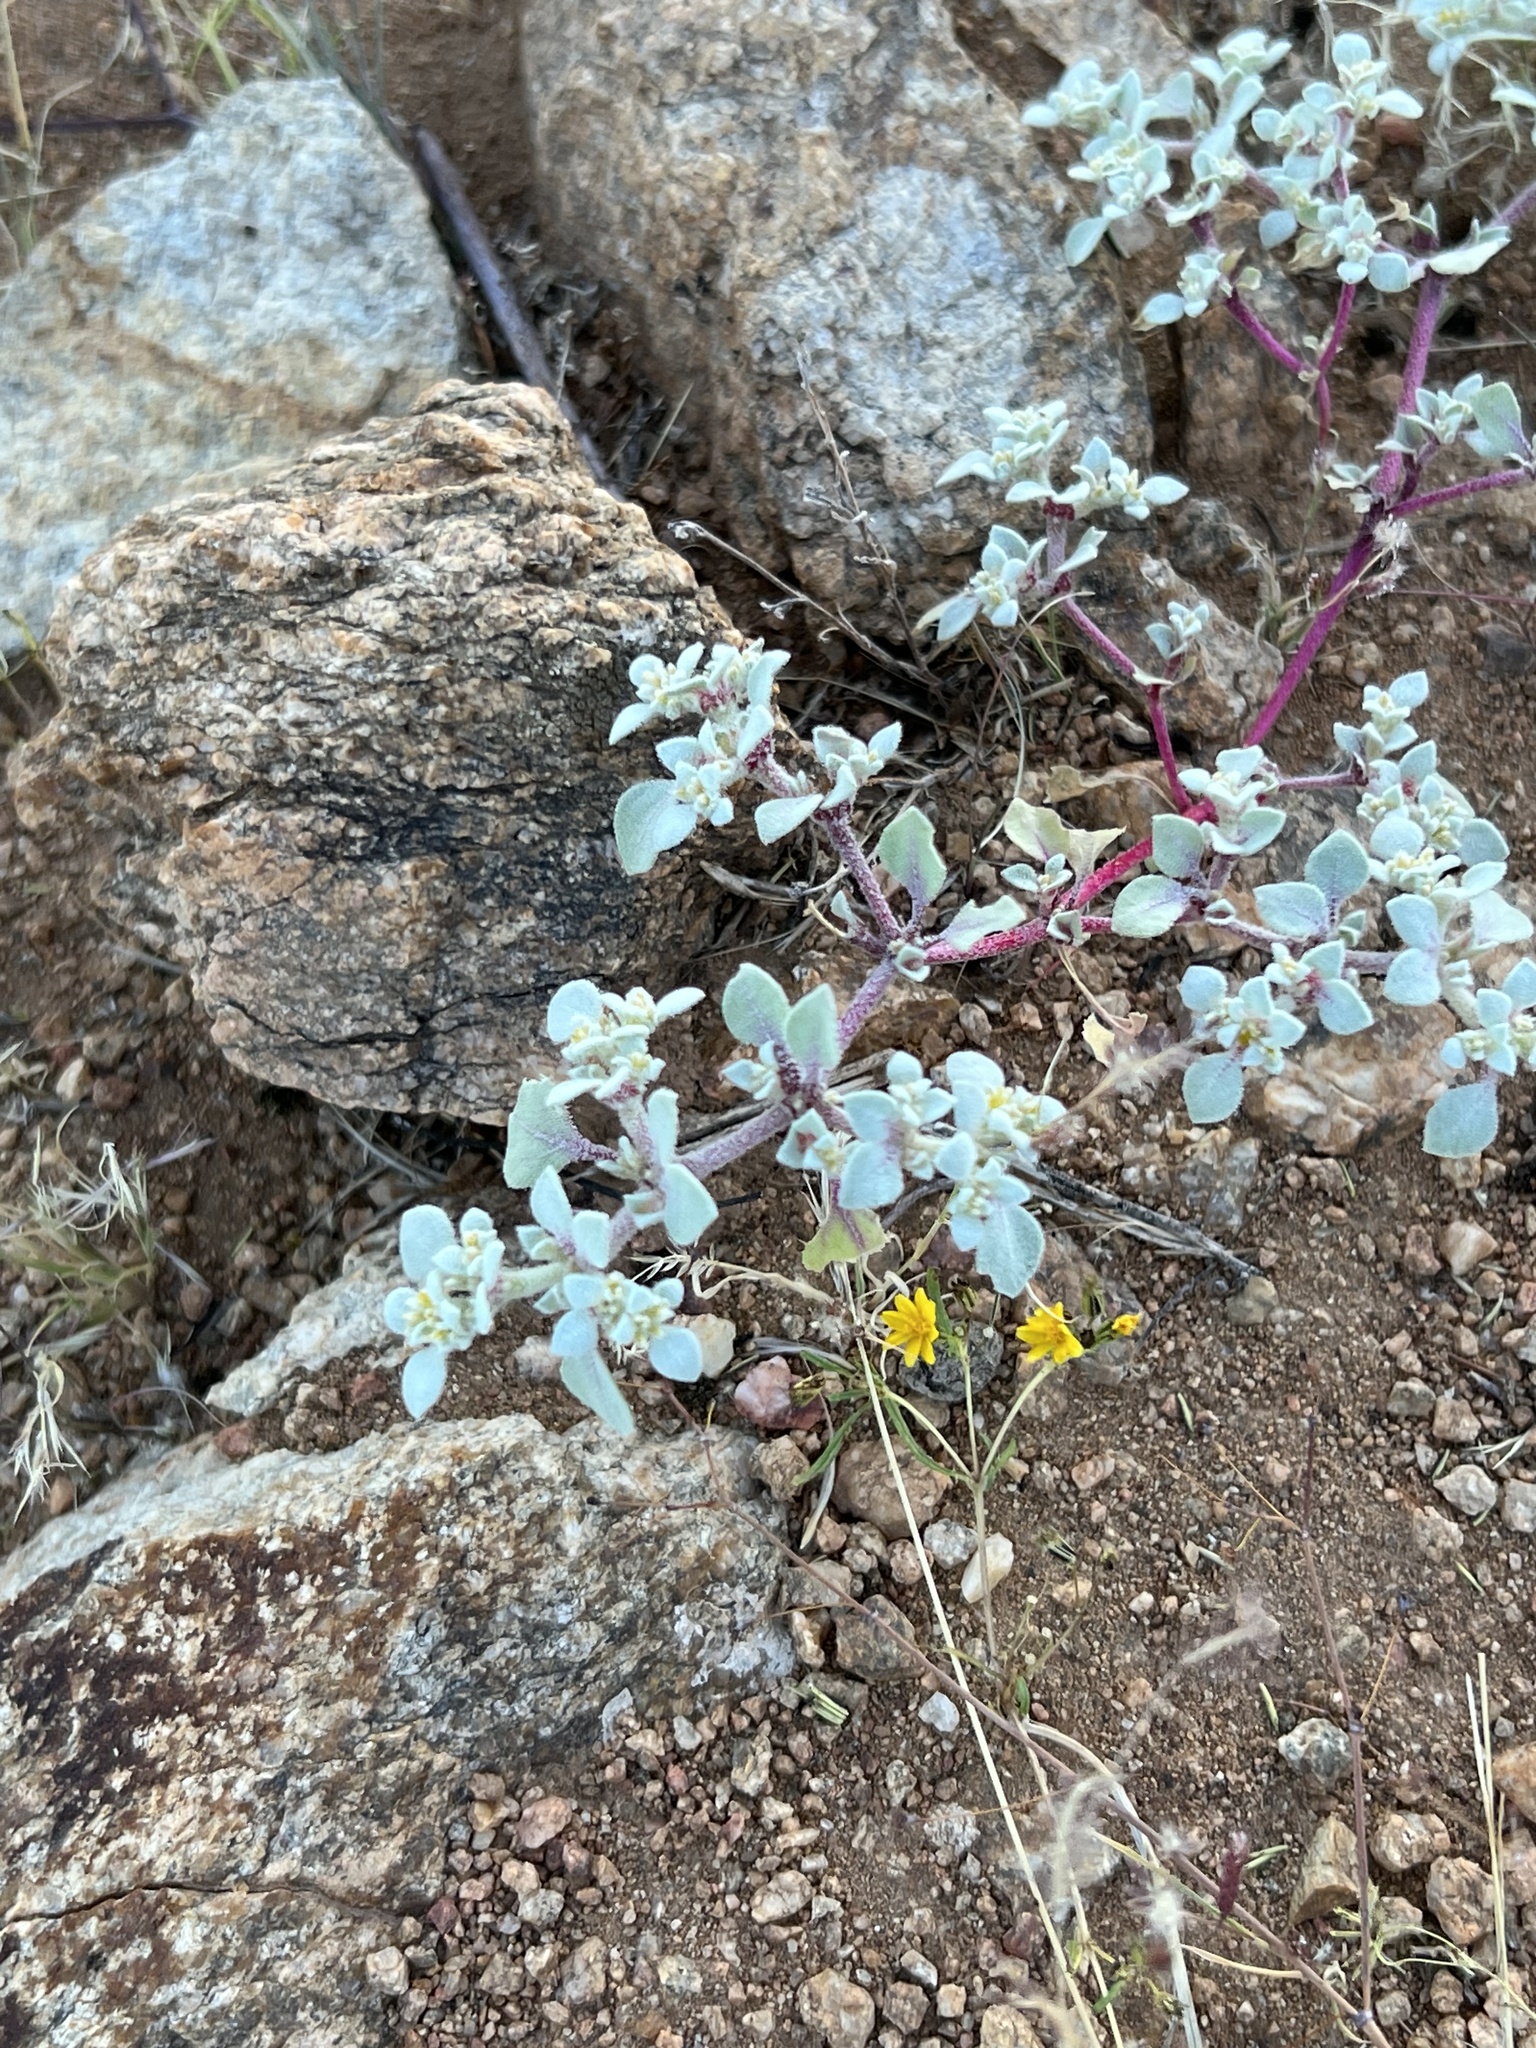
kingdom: Plantae
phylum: Tracheophyta
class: Magnoliopsida
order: Caryophyllales
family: Amaranthaceae
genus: Tidestromia
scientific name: Tidestromia lanuginosa
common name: Woolly tidestromia
